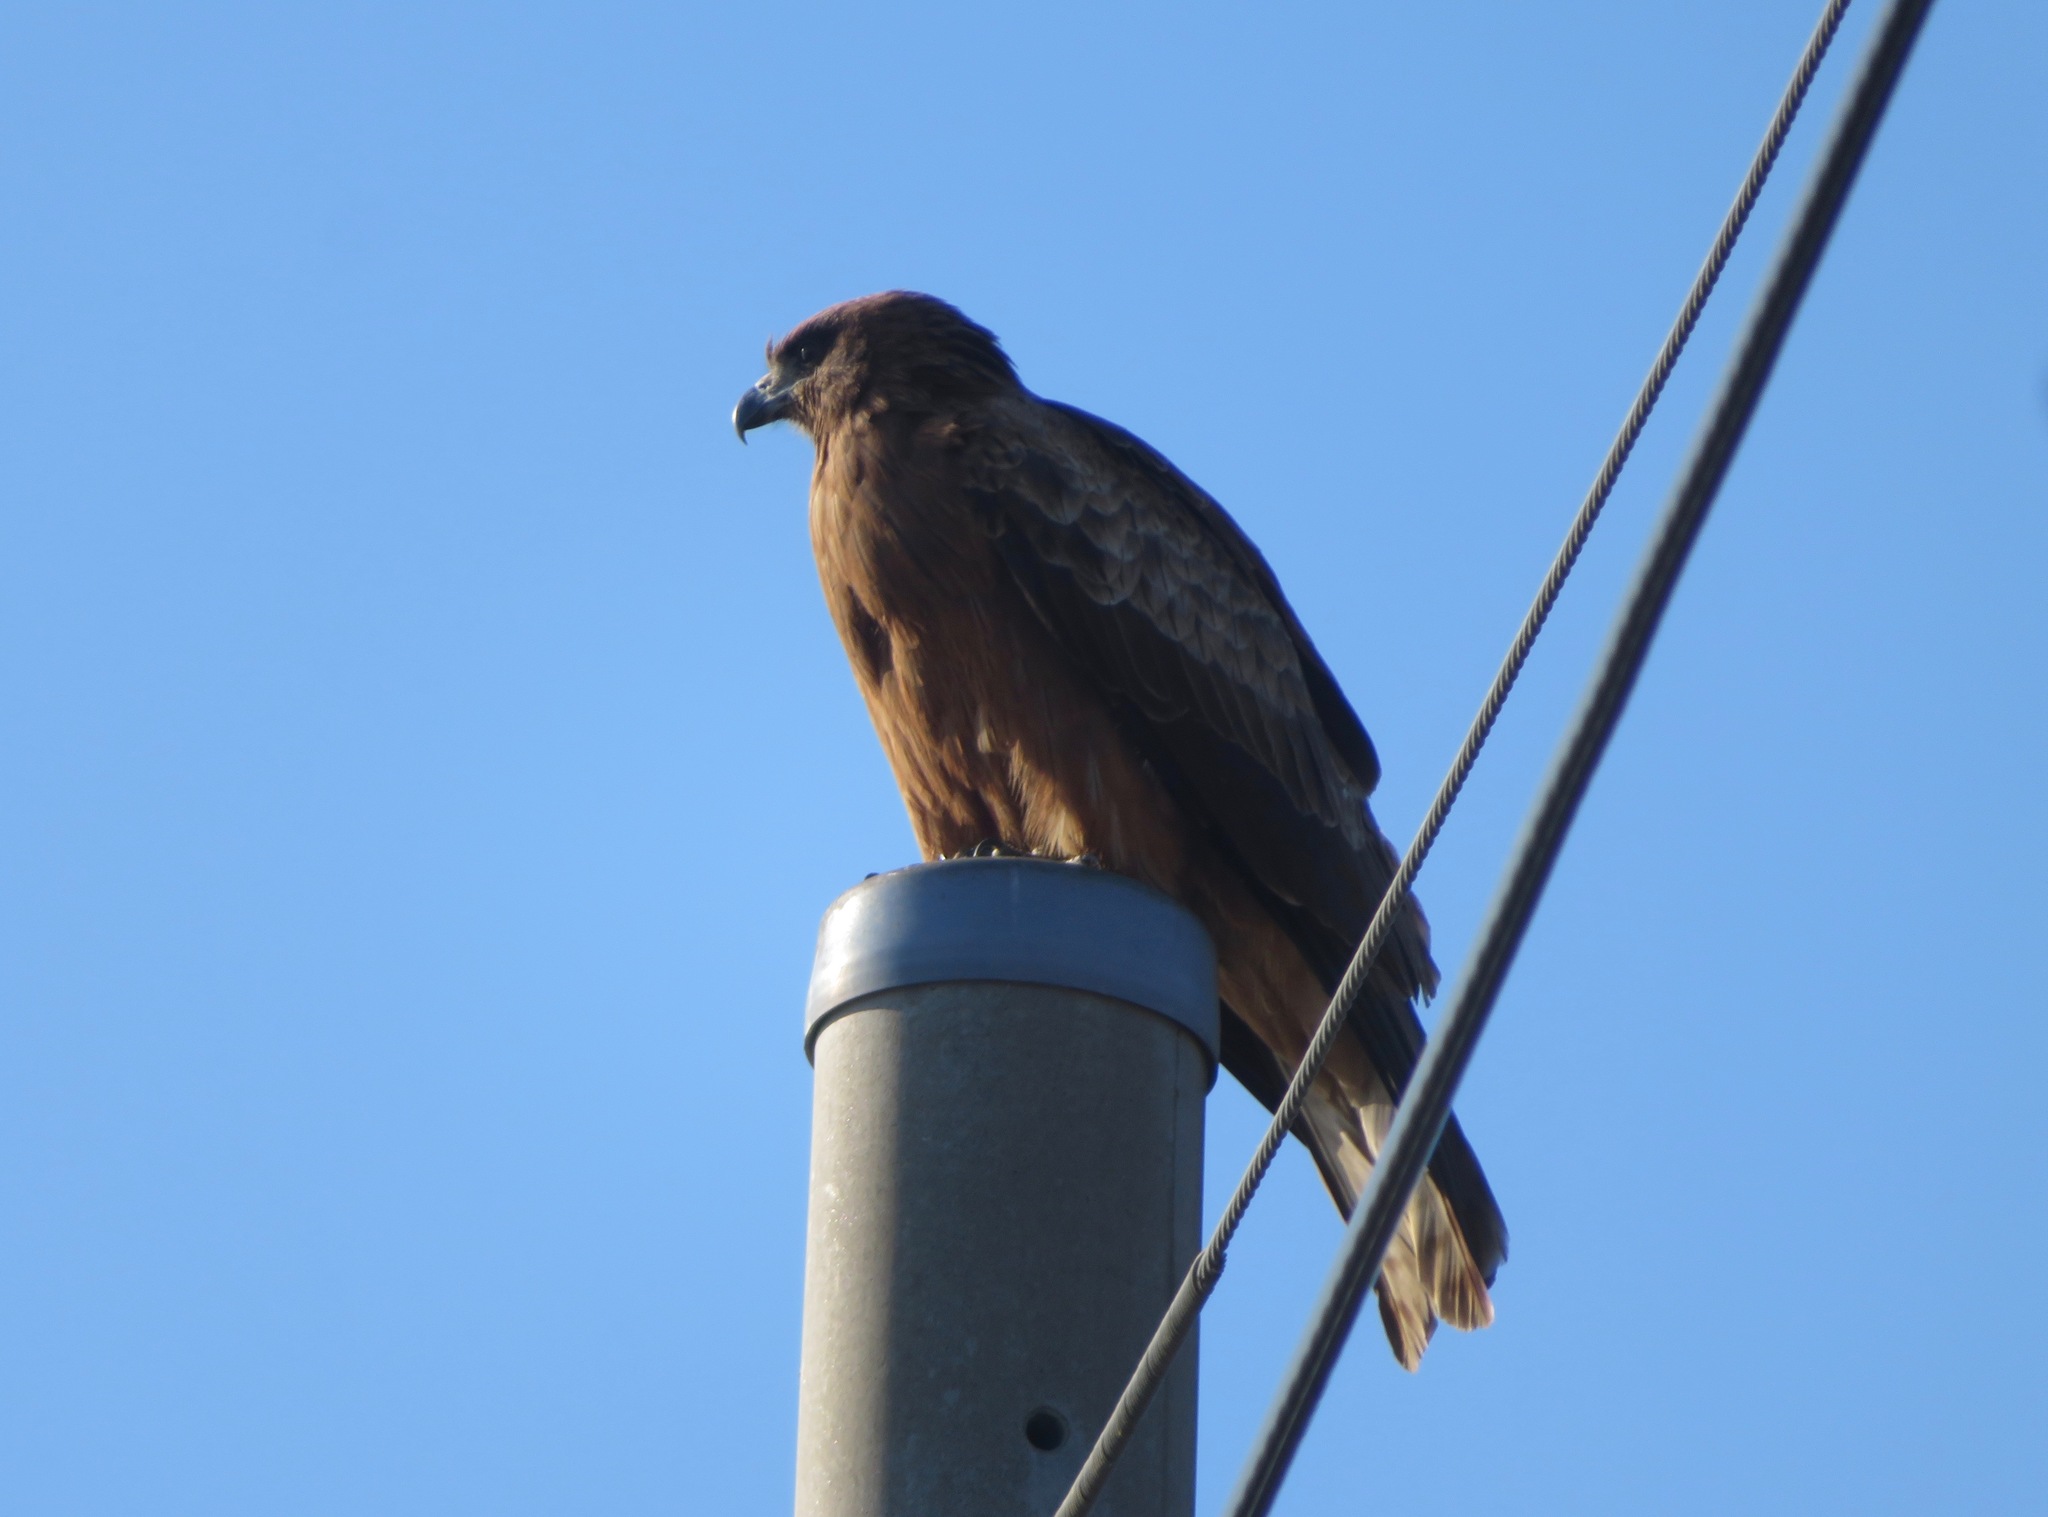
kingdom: Animalia
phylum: Chordata
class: Aves
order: Accipitriformes
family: Accipitridae
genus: Milvus
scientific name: Milvus migrans
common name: Black kite
